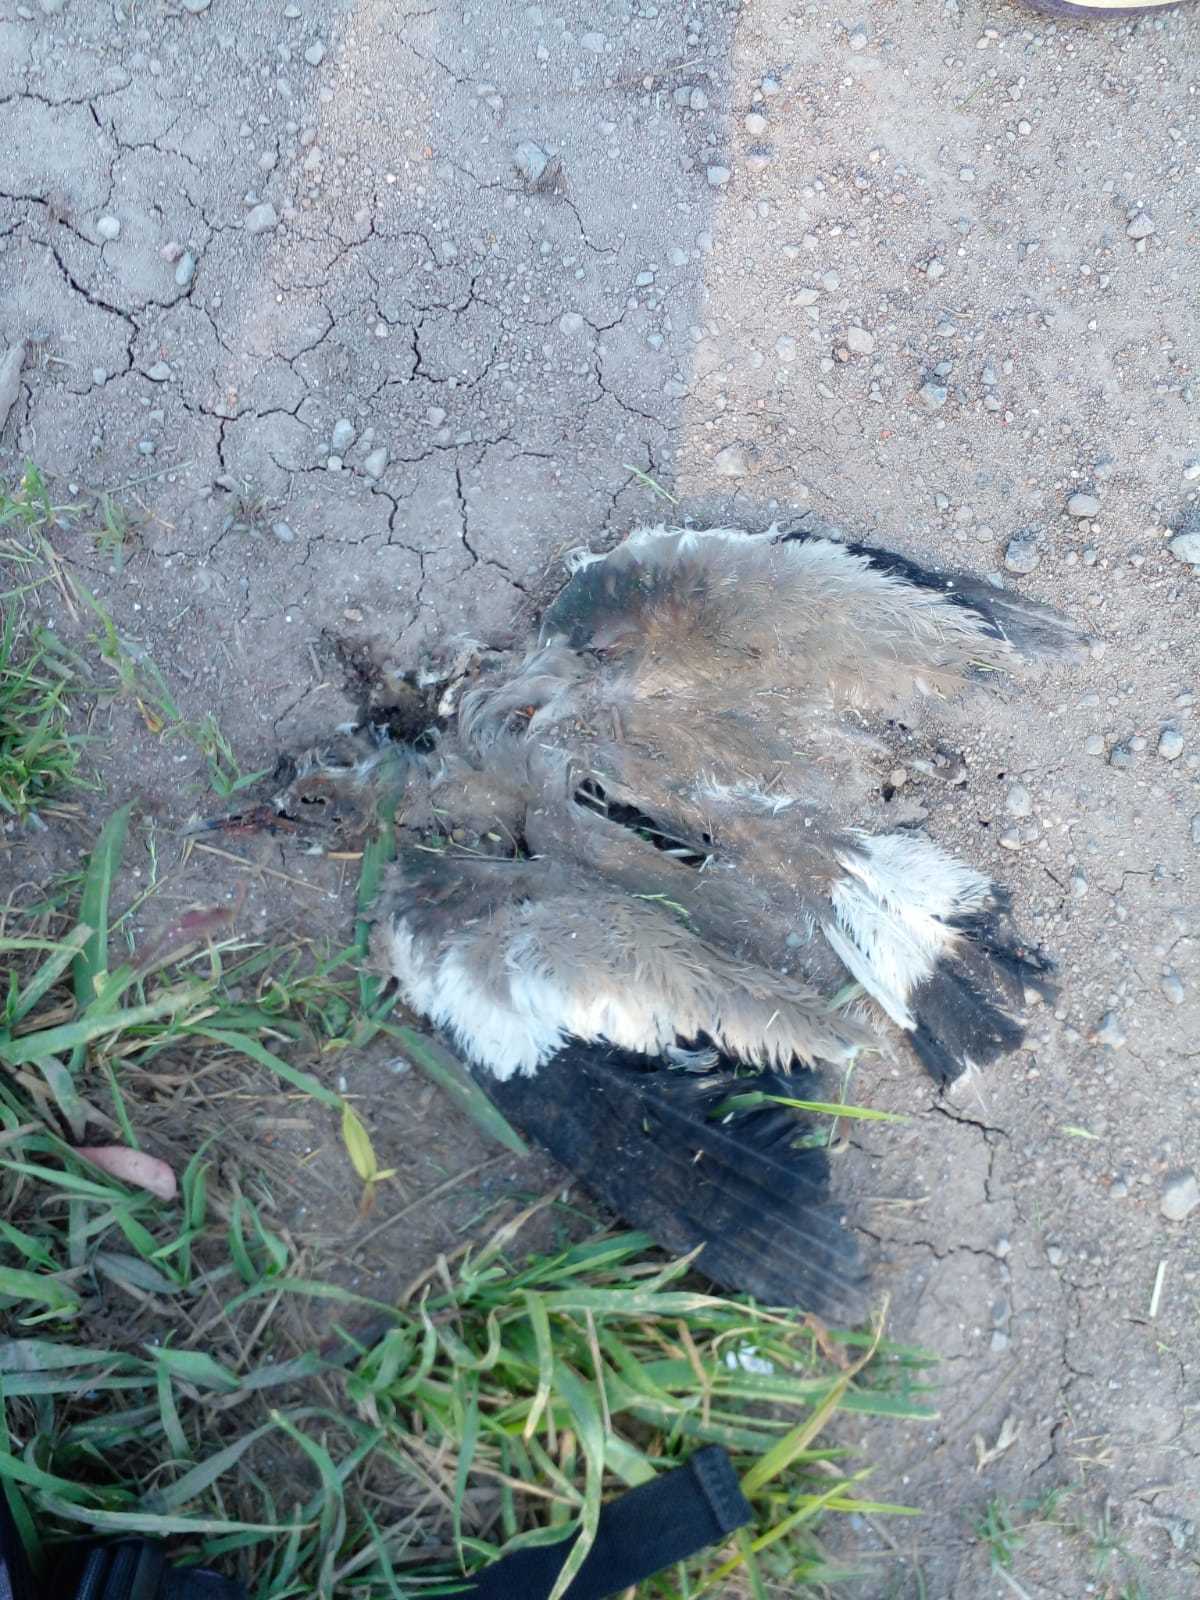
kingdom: Animalia
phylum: Chordata
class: Aves
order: Charadriiformes
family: Charadriidae
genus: Vanellus
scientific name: Vanellus chilensis
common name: Southern lapwing
